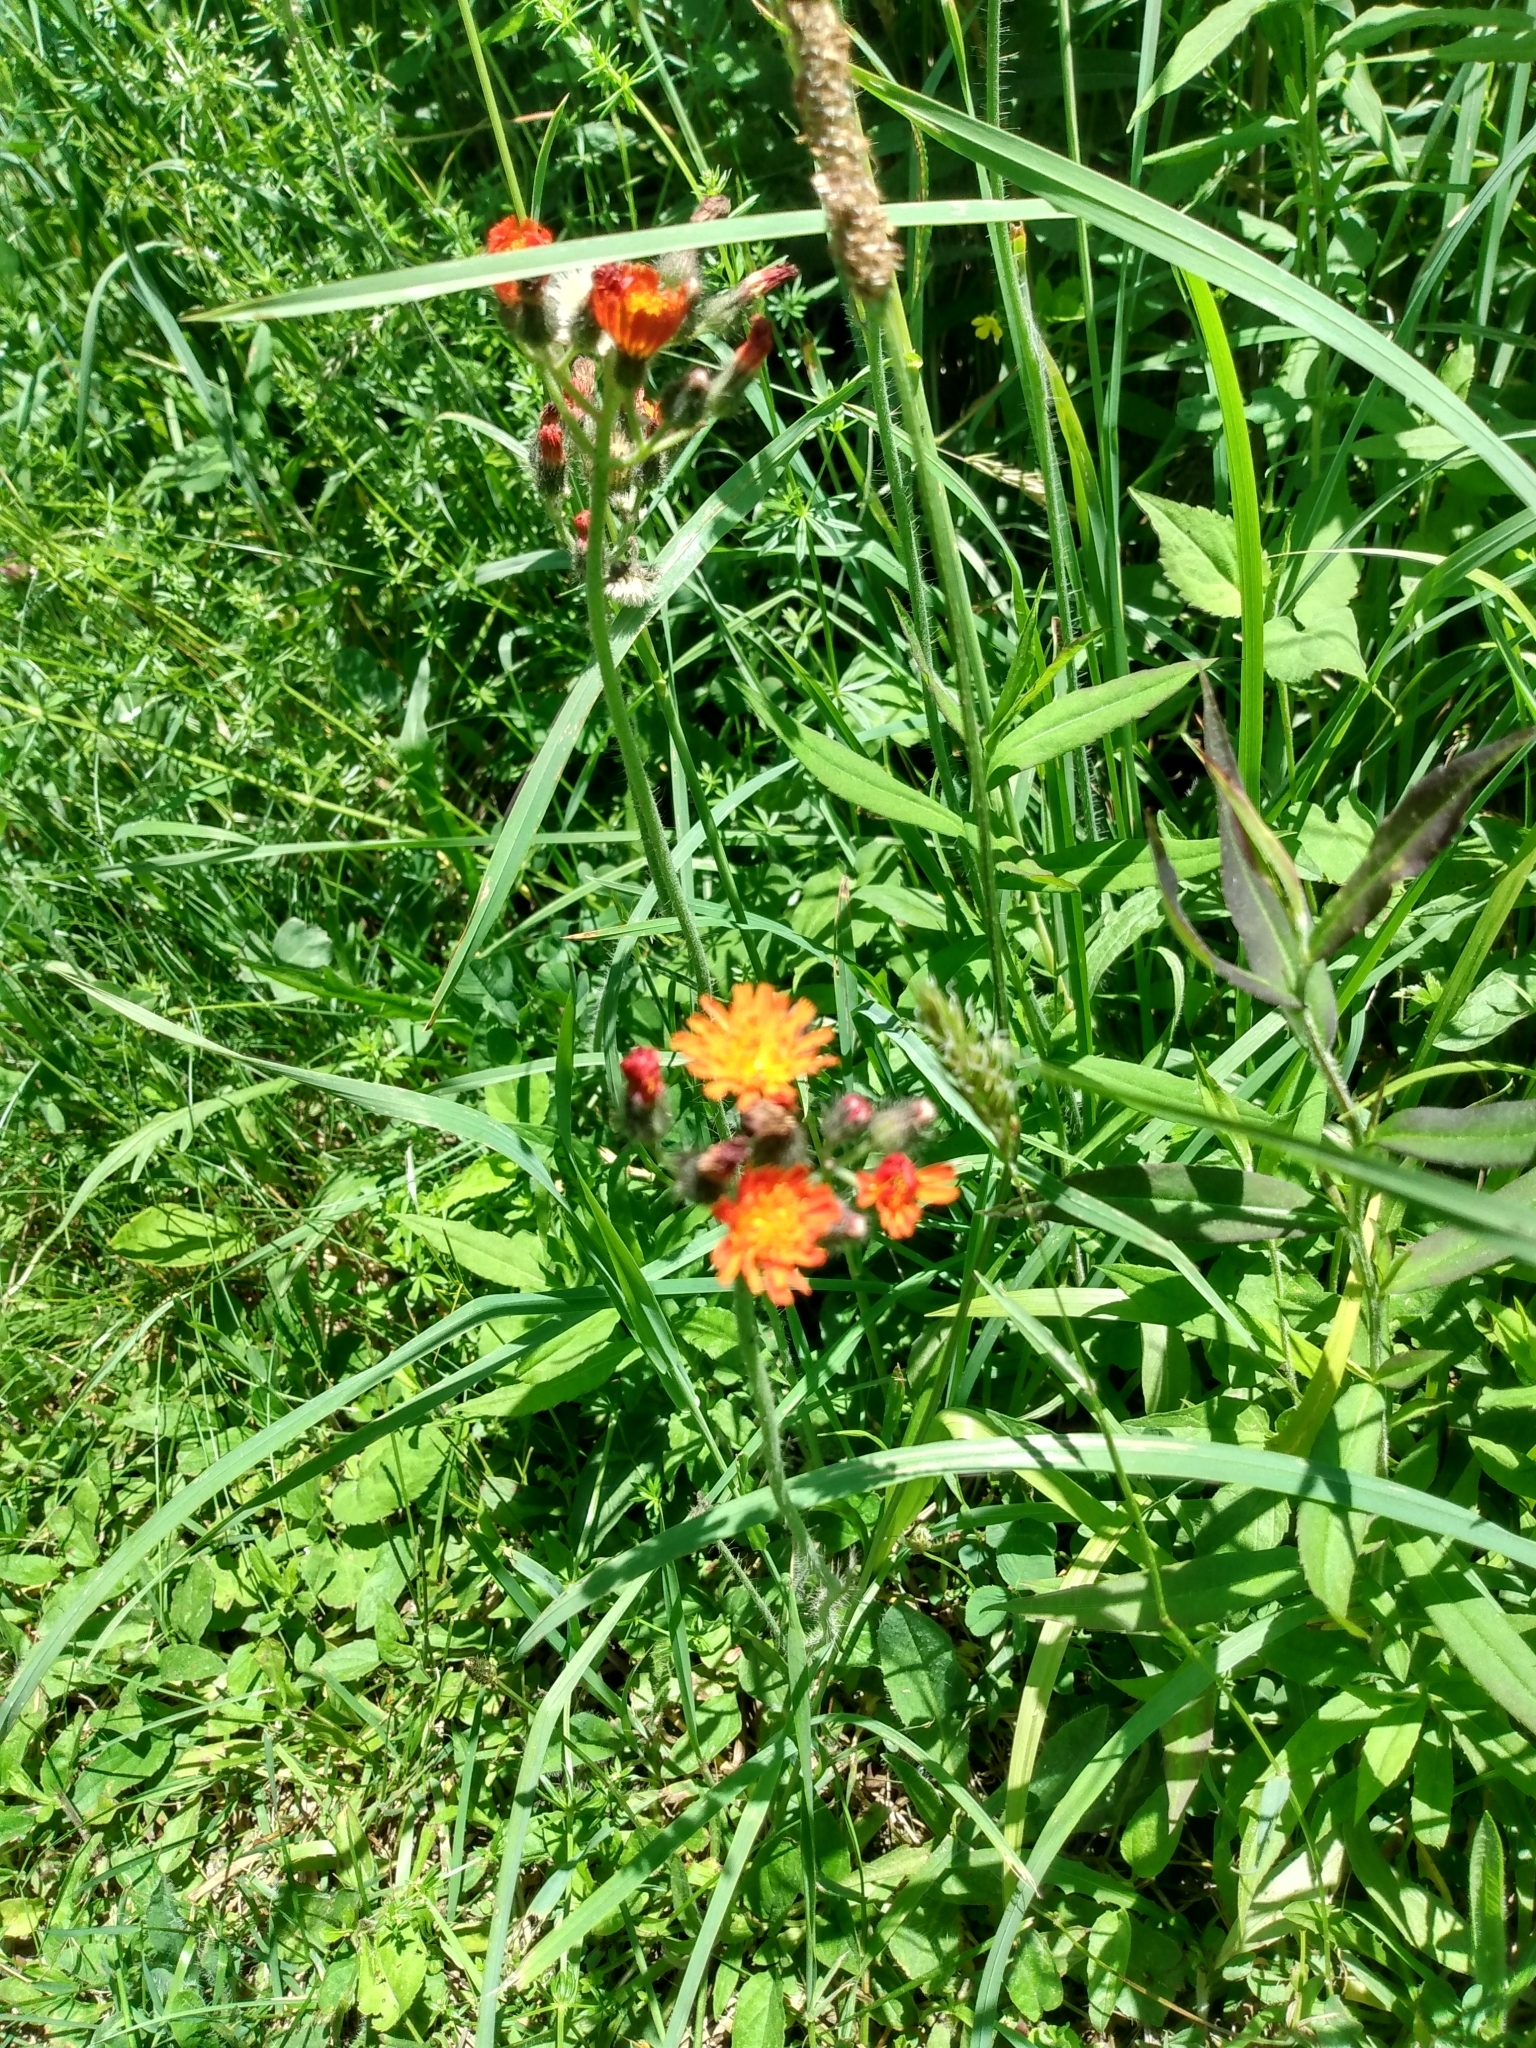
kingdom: Plantae
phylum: Tracheophyta
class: Magnoliopsida
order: Asterales
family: Asteraceae
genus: Pilosella
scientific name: Pilosella aurantiaca
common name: Fox-and-cubs
